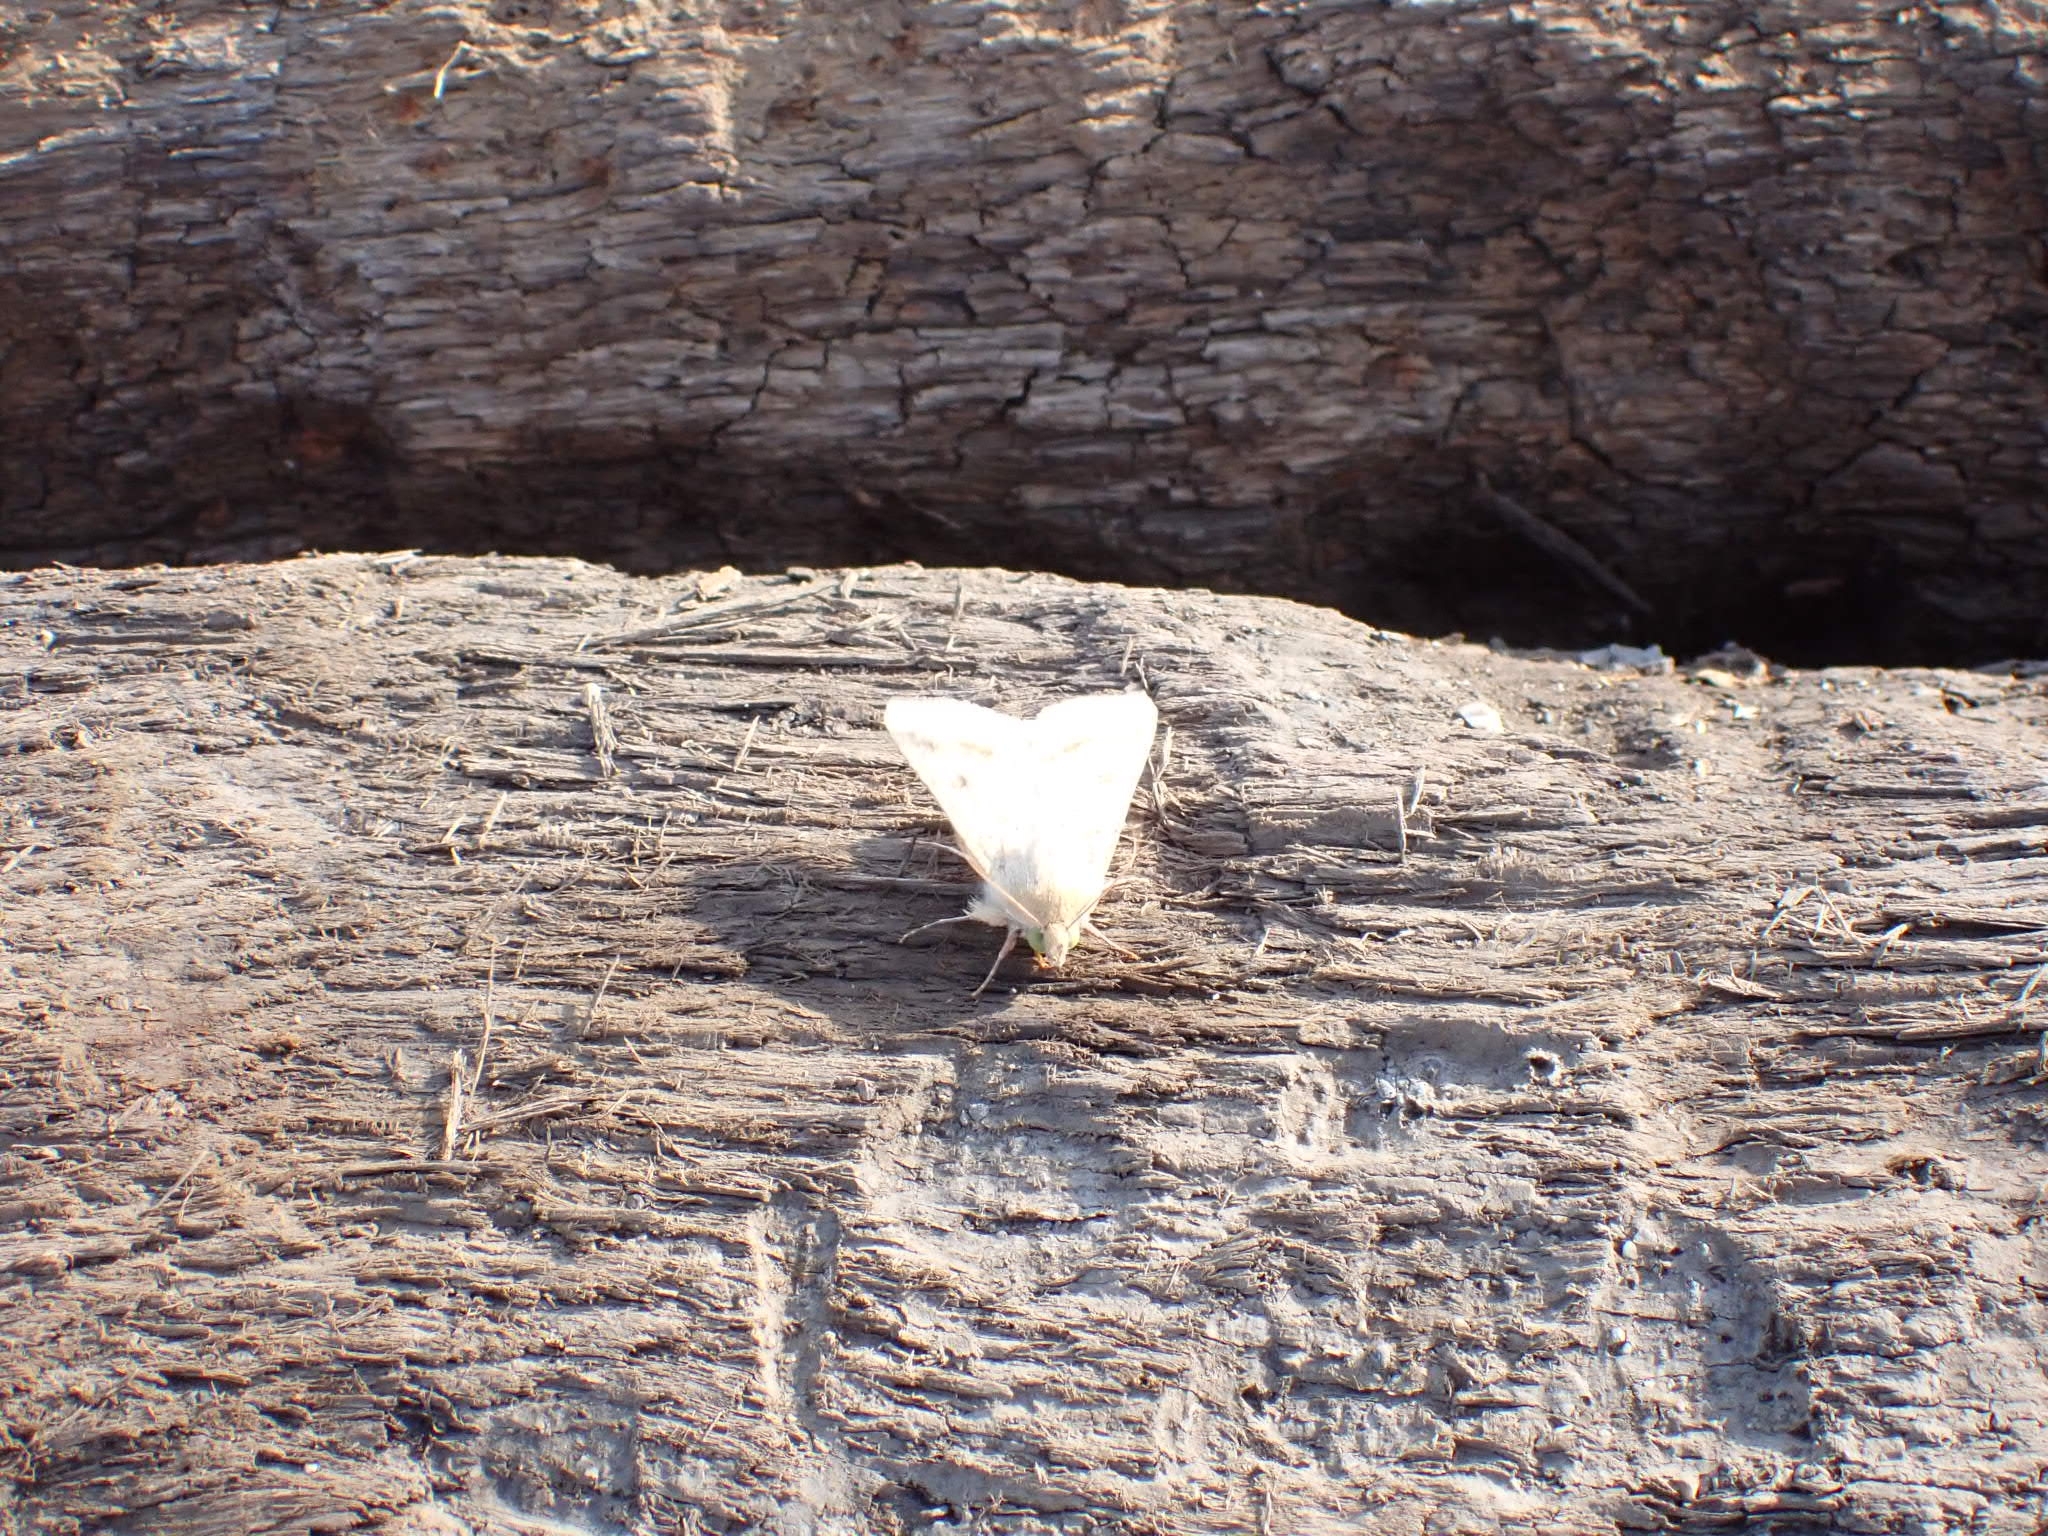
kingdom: Animalia
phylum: Arthropoda
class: Insecta
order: Lepidoptera
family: Noctuidae
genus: Heliothis
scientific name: Heliothis peltigera
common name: Bordered straw
